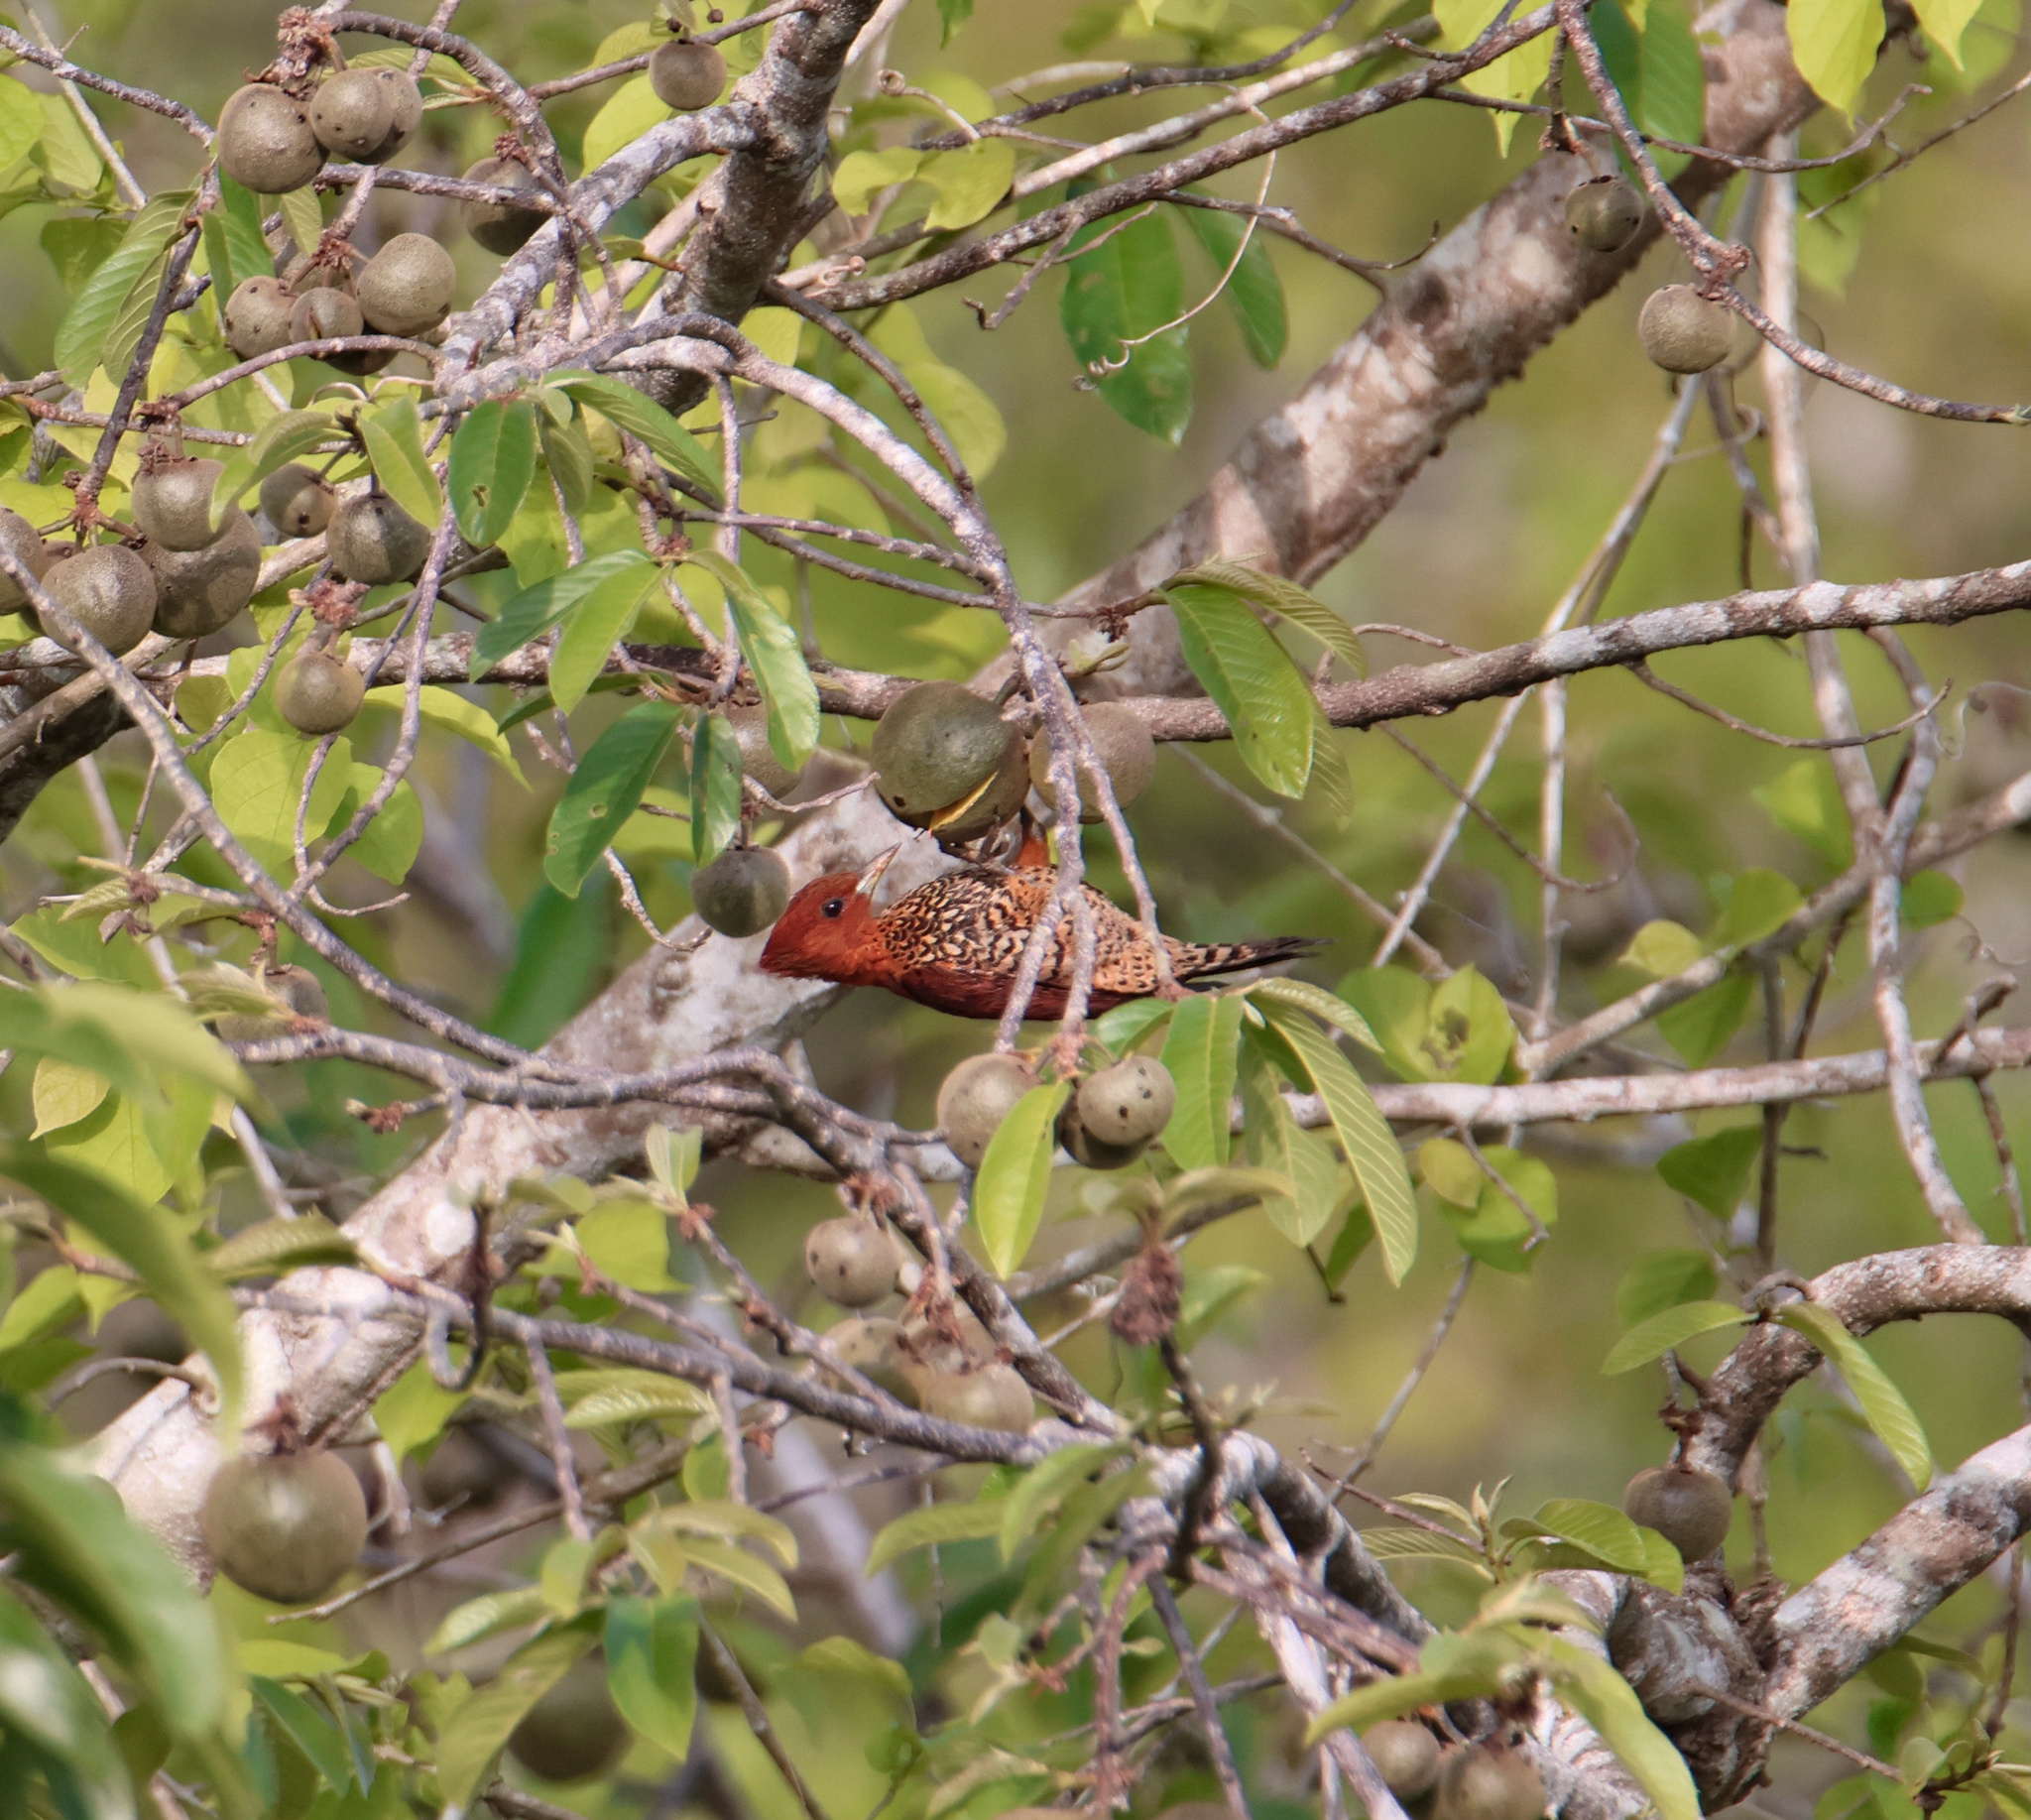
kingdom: Animalia
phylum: Chordata
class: Aves
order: Piciformes
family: Picidae
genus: Celeus
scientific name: Celeus loricatus
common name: Cinnamon woodpecker
